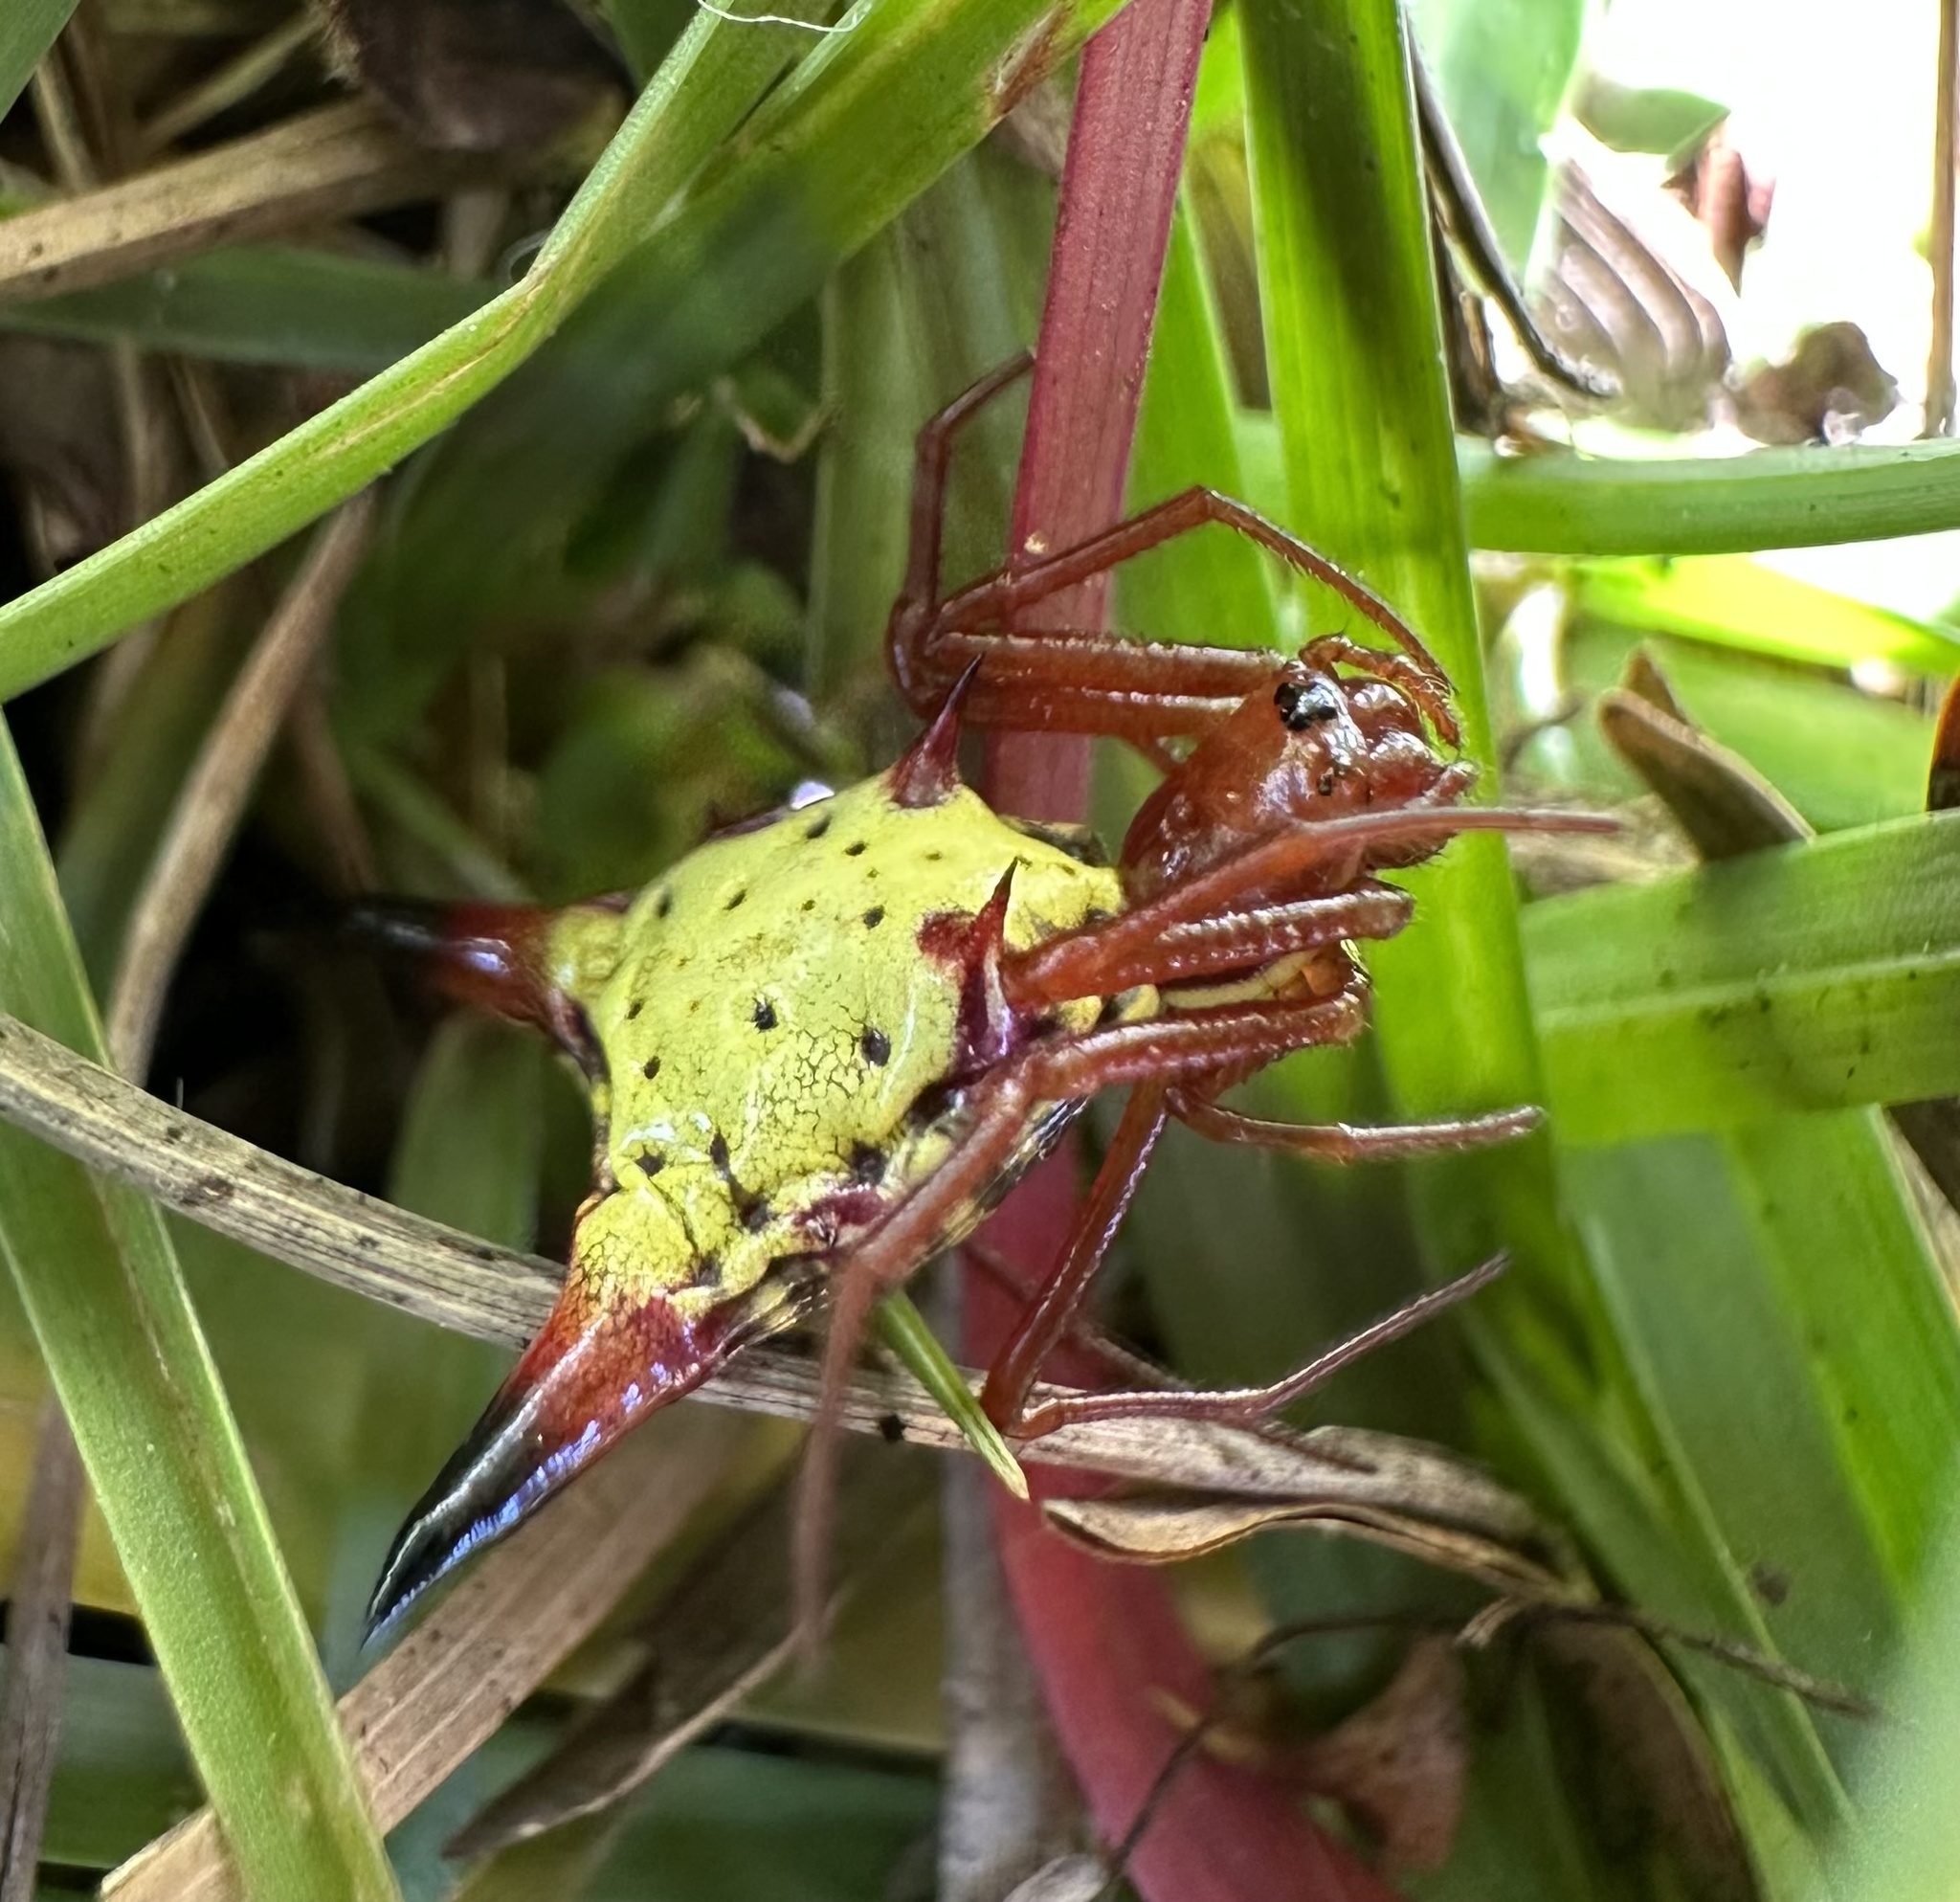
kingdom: Animalia
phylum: Arthropoda
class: Arachnida
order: Araneae
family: Araneidae
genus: Micrathena
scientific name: Micrathena sagittata
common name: Orb weavers
